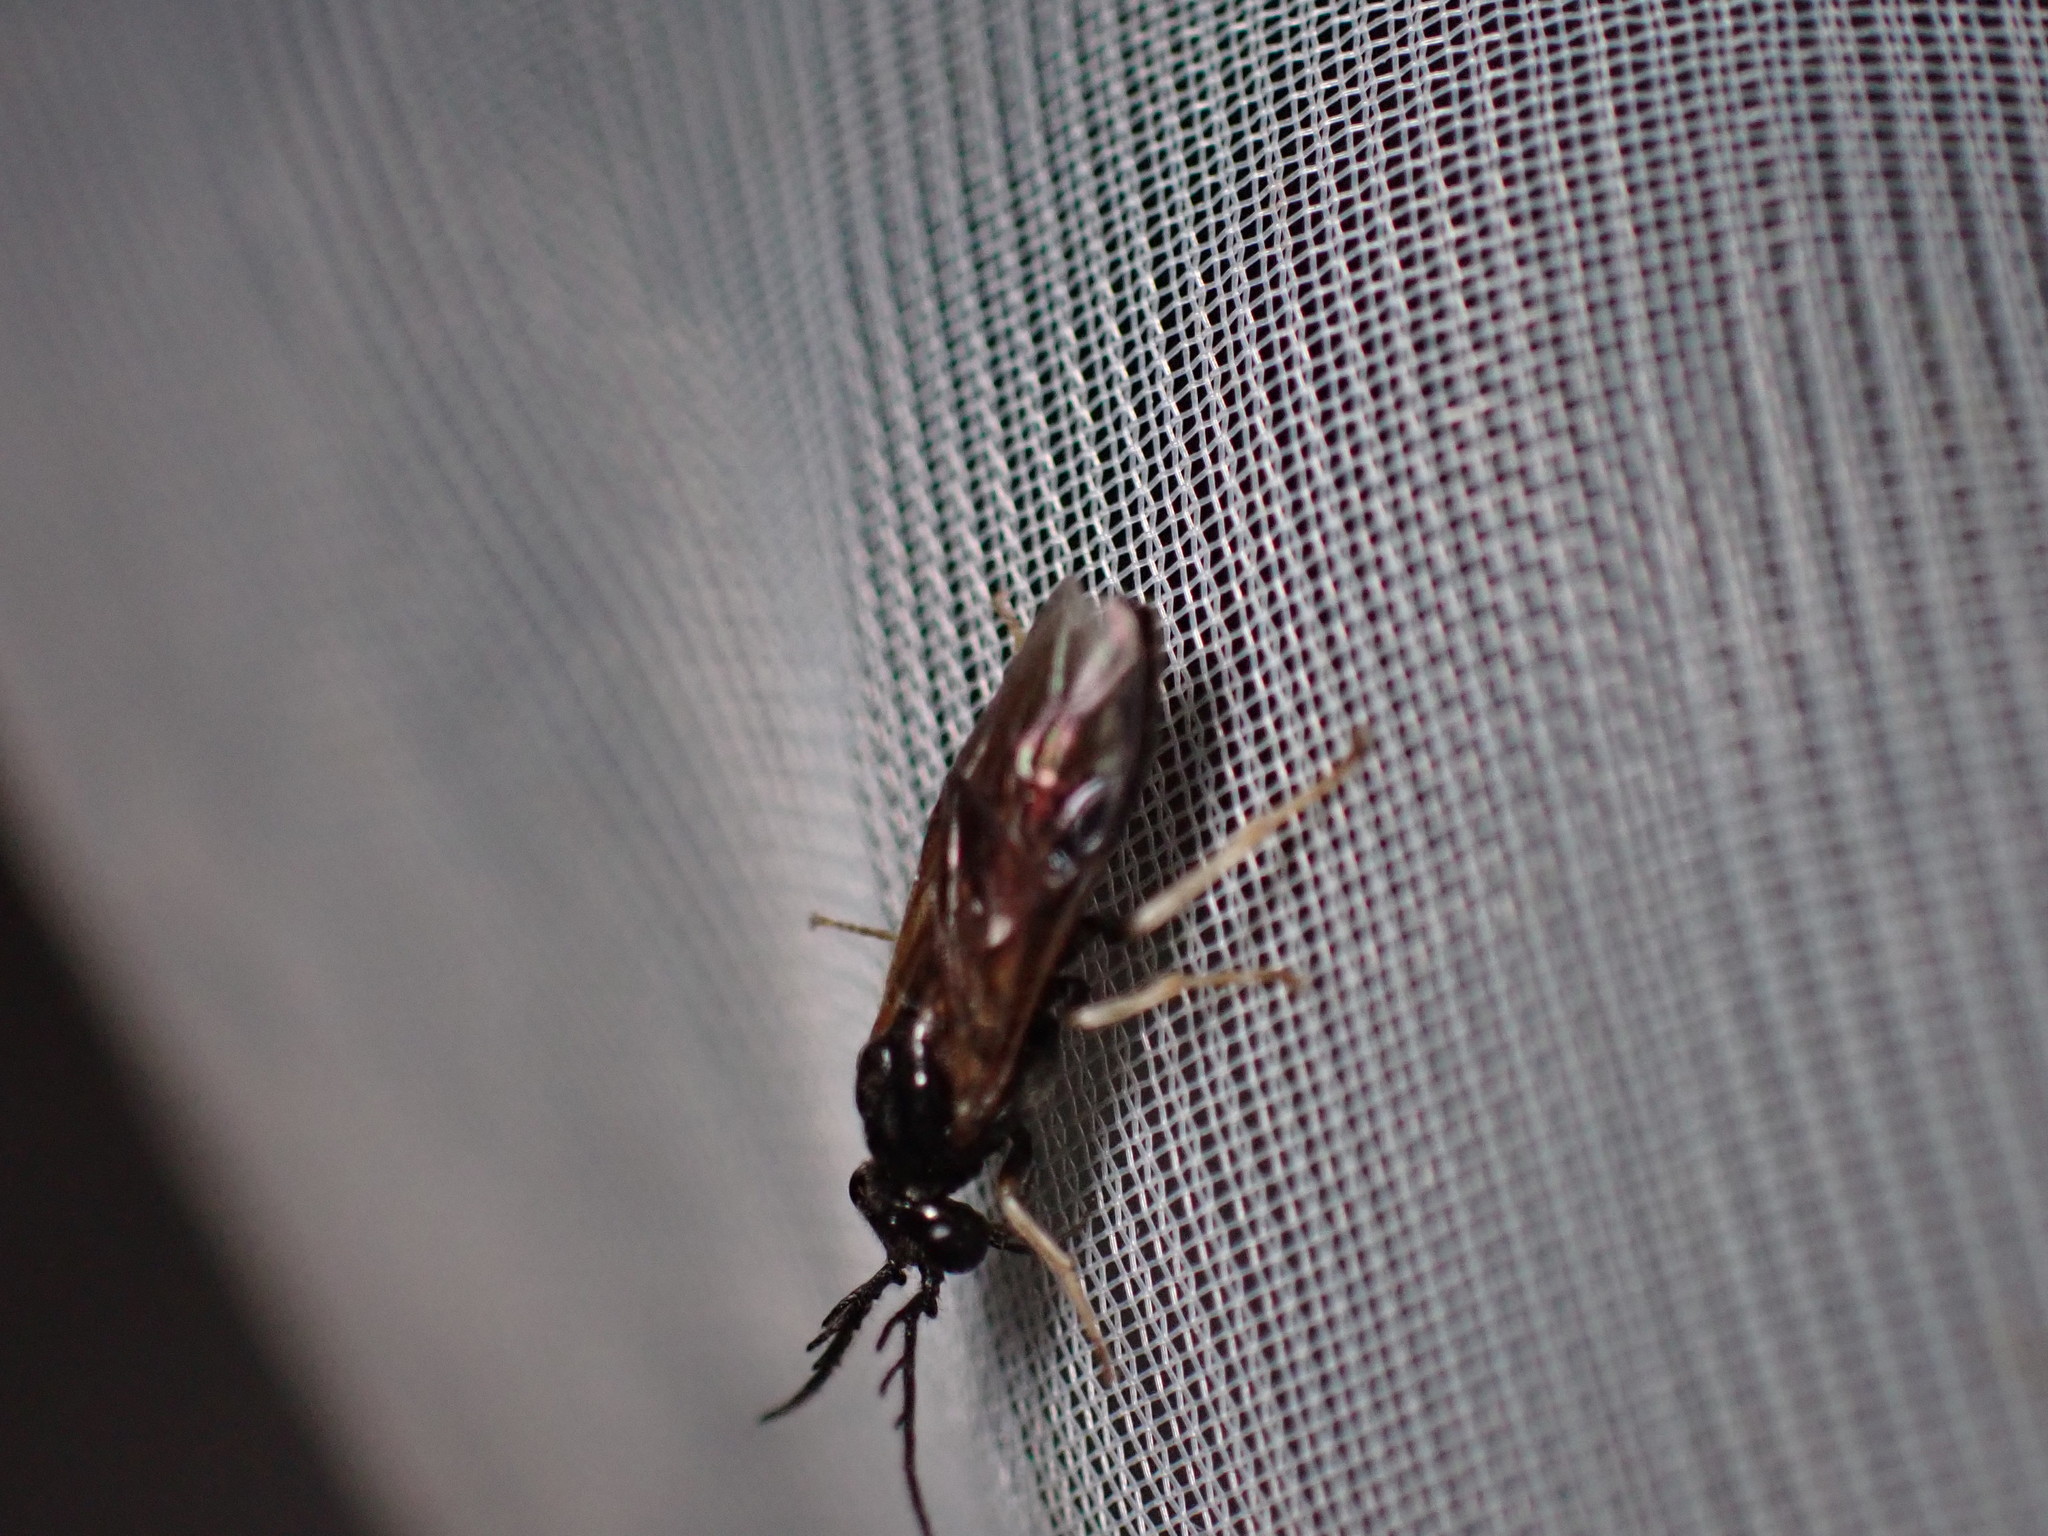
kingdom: Animalia
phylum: Arthropoda
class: Insecta
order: Hymenoptera
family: Tenthredinidae
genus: Cladius
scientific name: Cladius pectinicornis
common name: Sawfly
